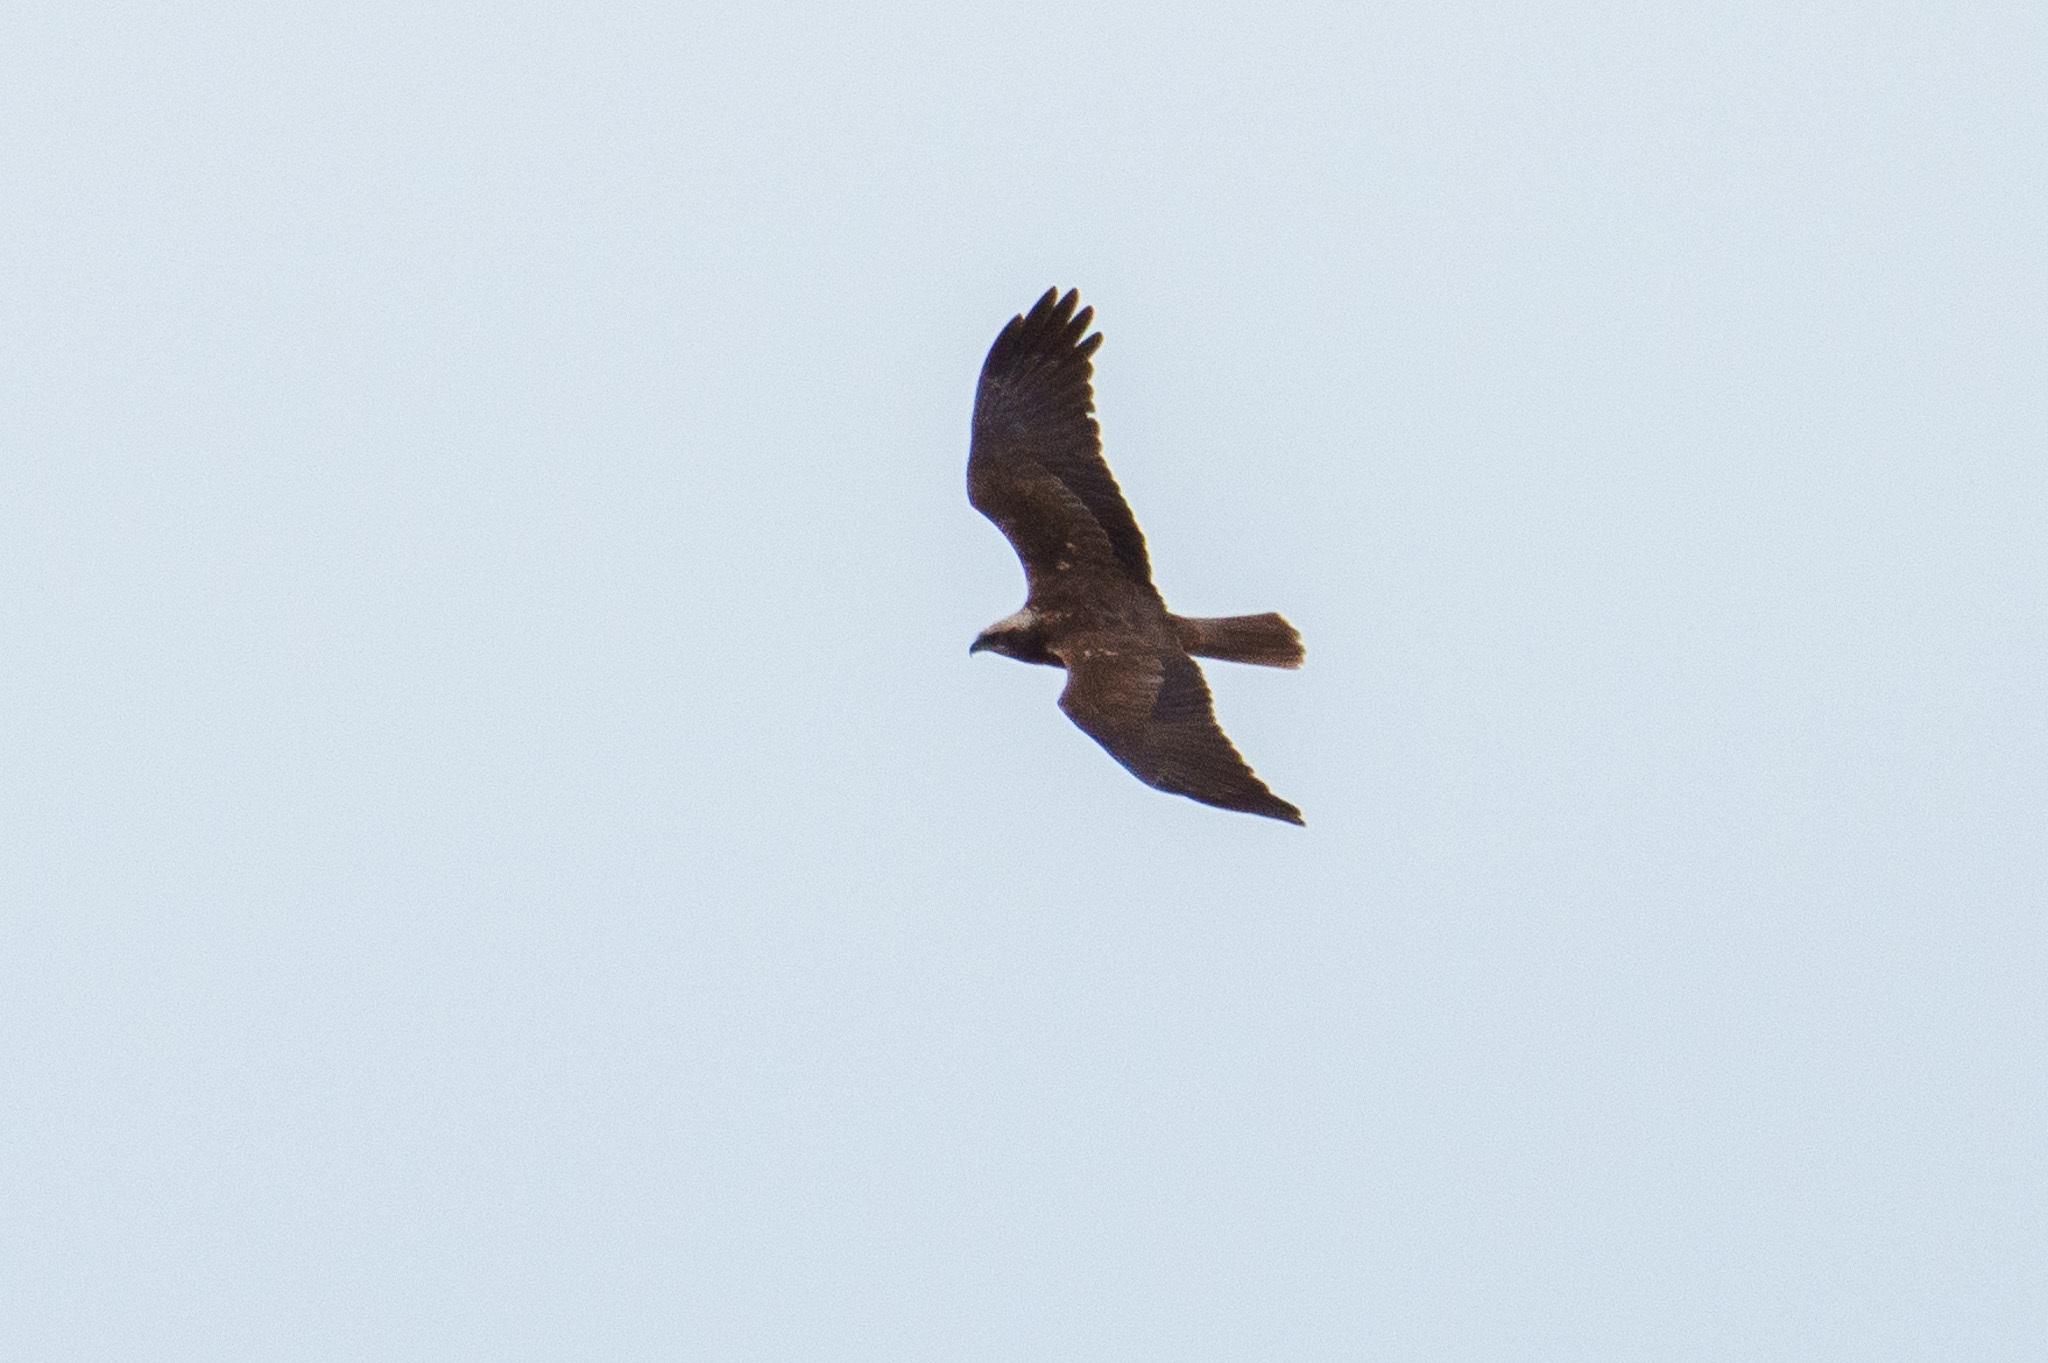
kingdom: Animalia
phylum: Chordata
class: Aves
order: Accipitriformes
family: Accipitridae
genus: Circus
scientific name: Circus aeruginosus
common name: Western marsh harrier
